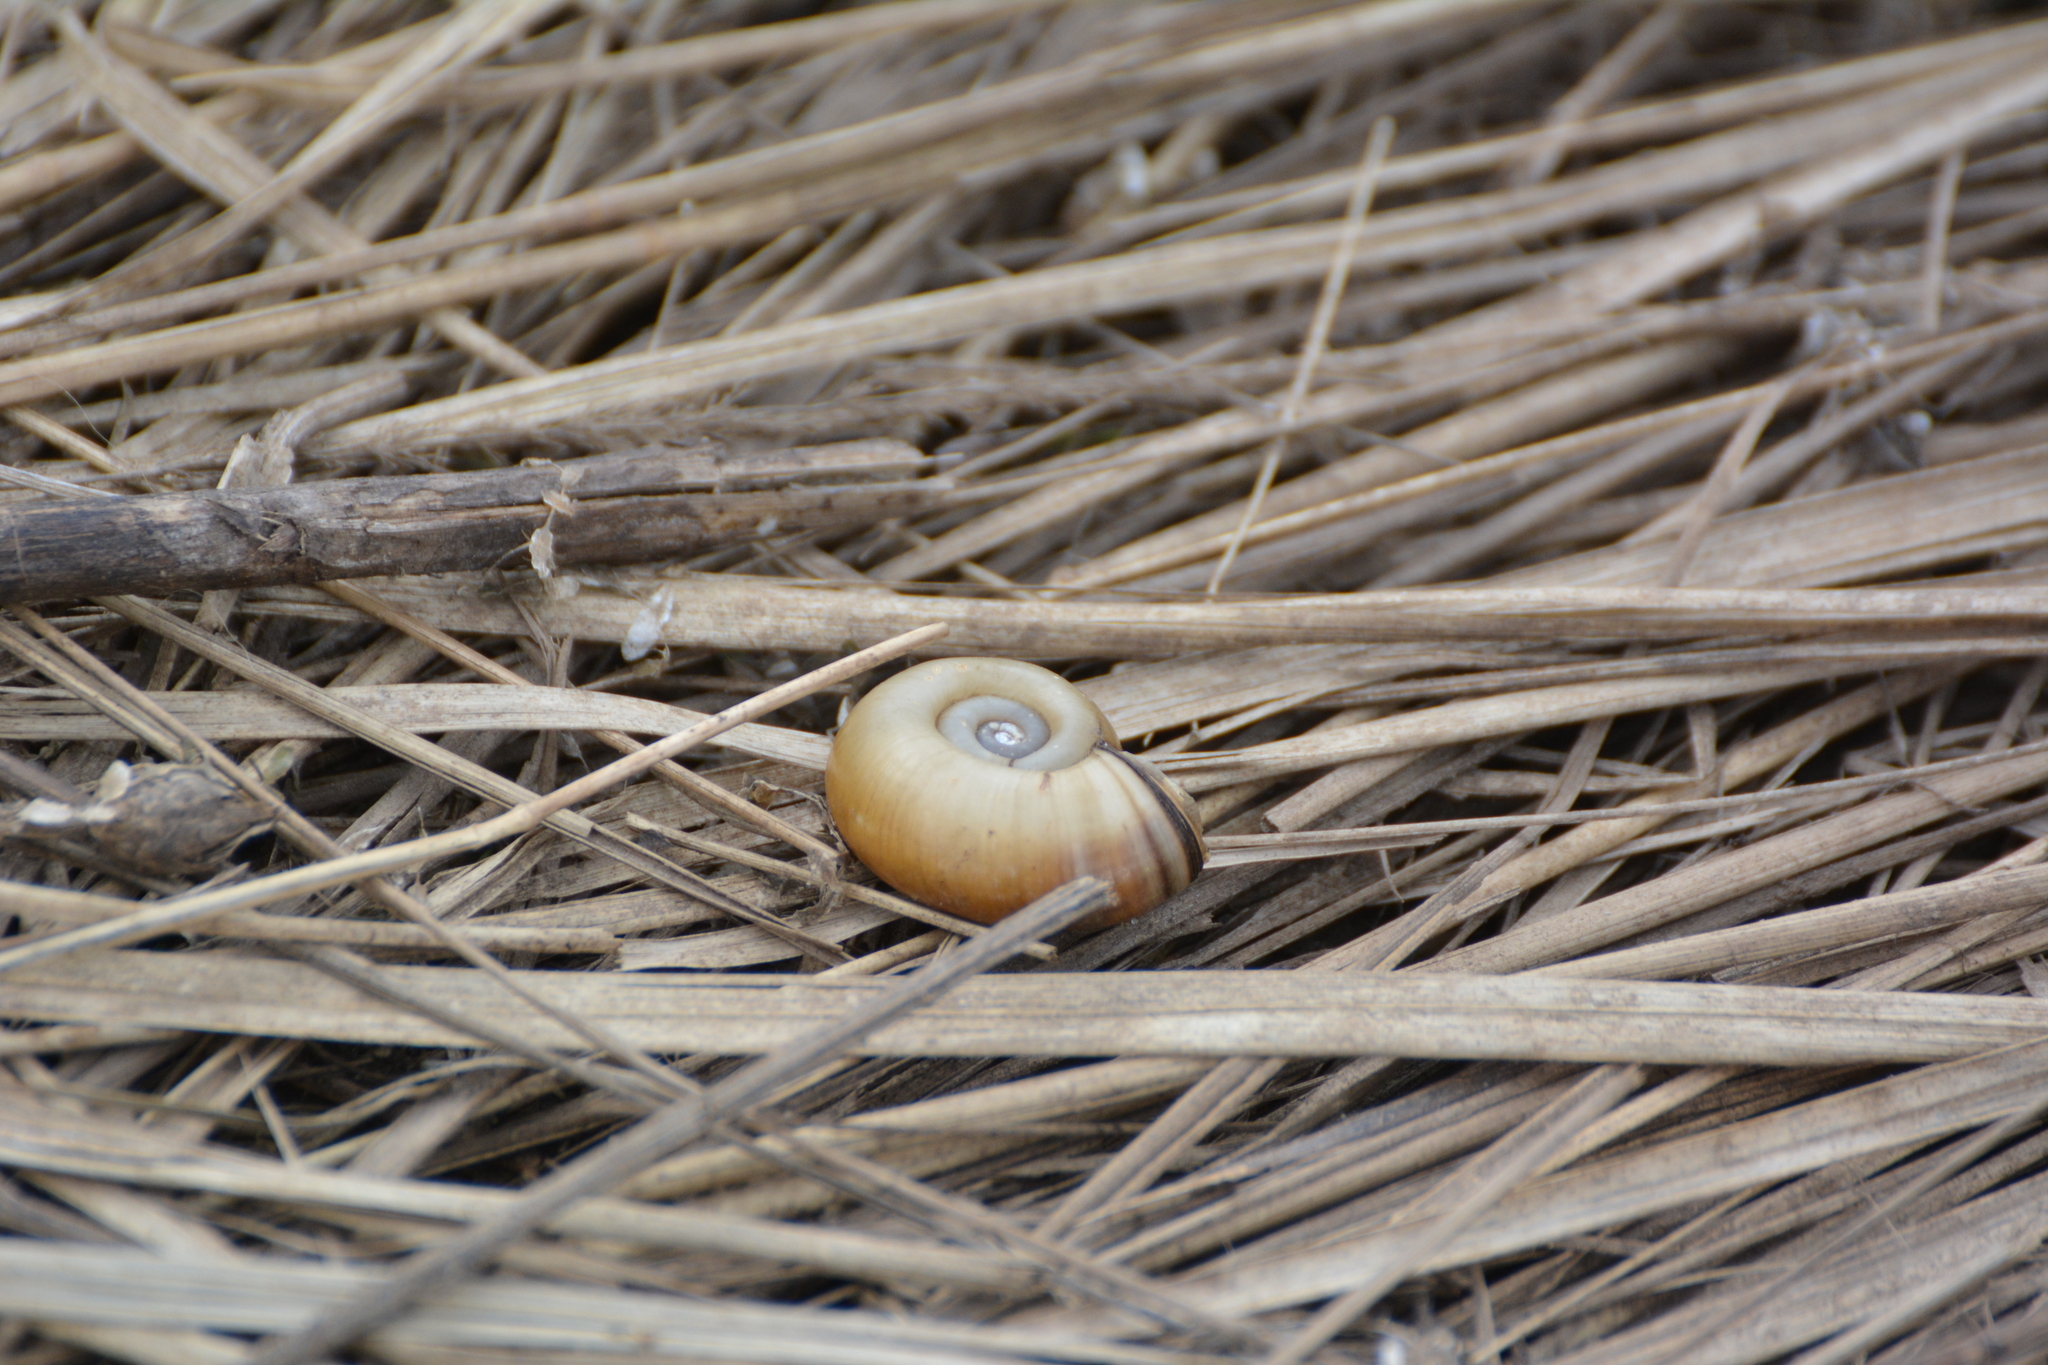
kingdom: Animalia
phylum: Mollusca
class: Gastropoda
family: Planorbidae
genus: Planorbarius
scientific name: Planorbarius corneus
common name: Great ramshorn
